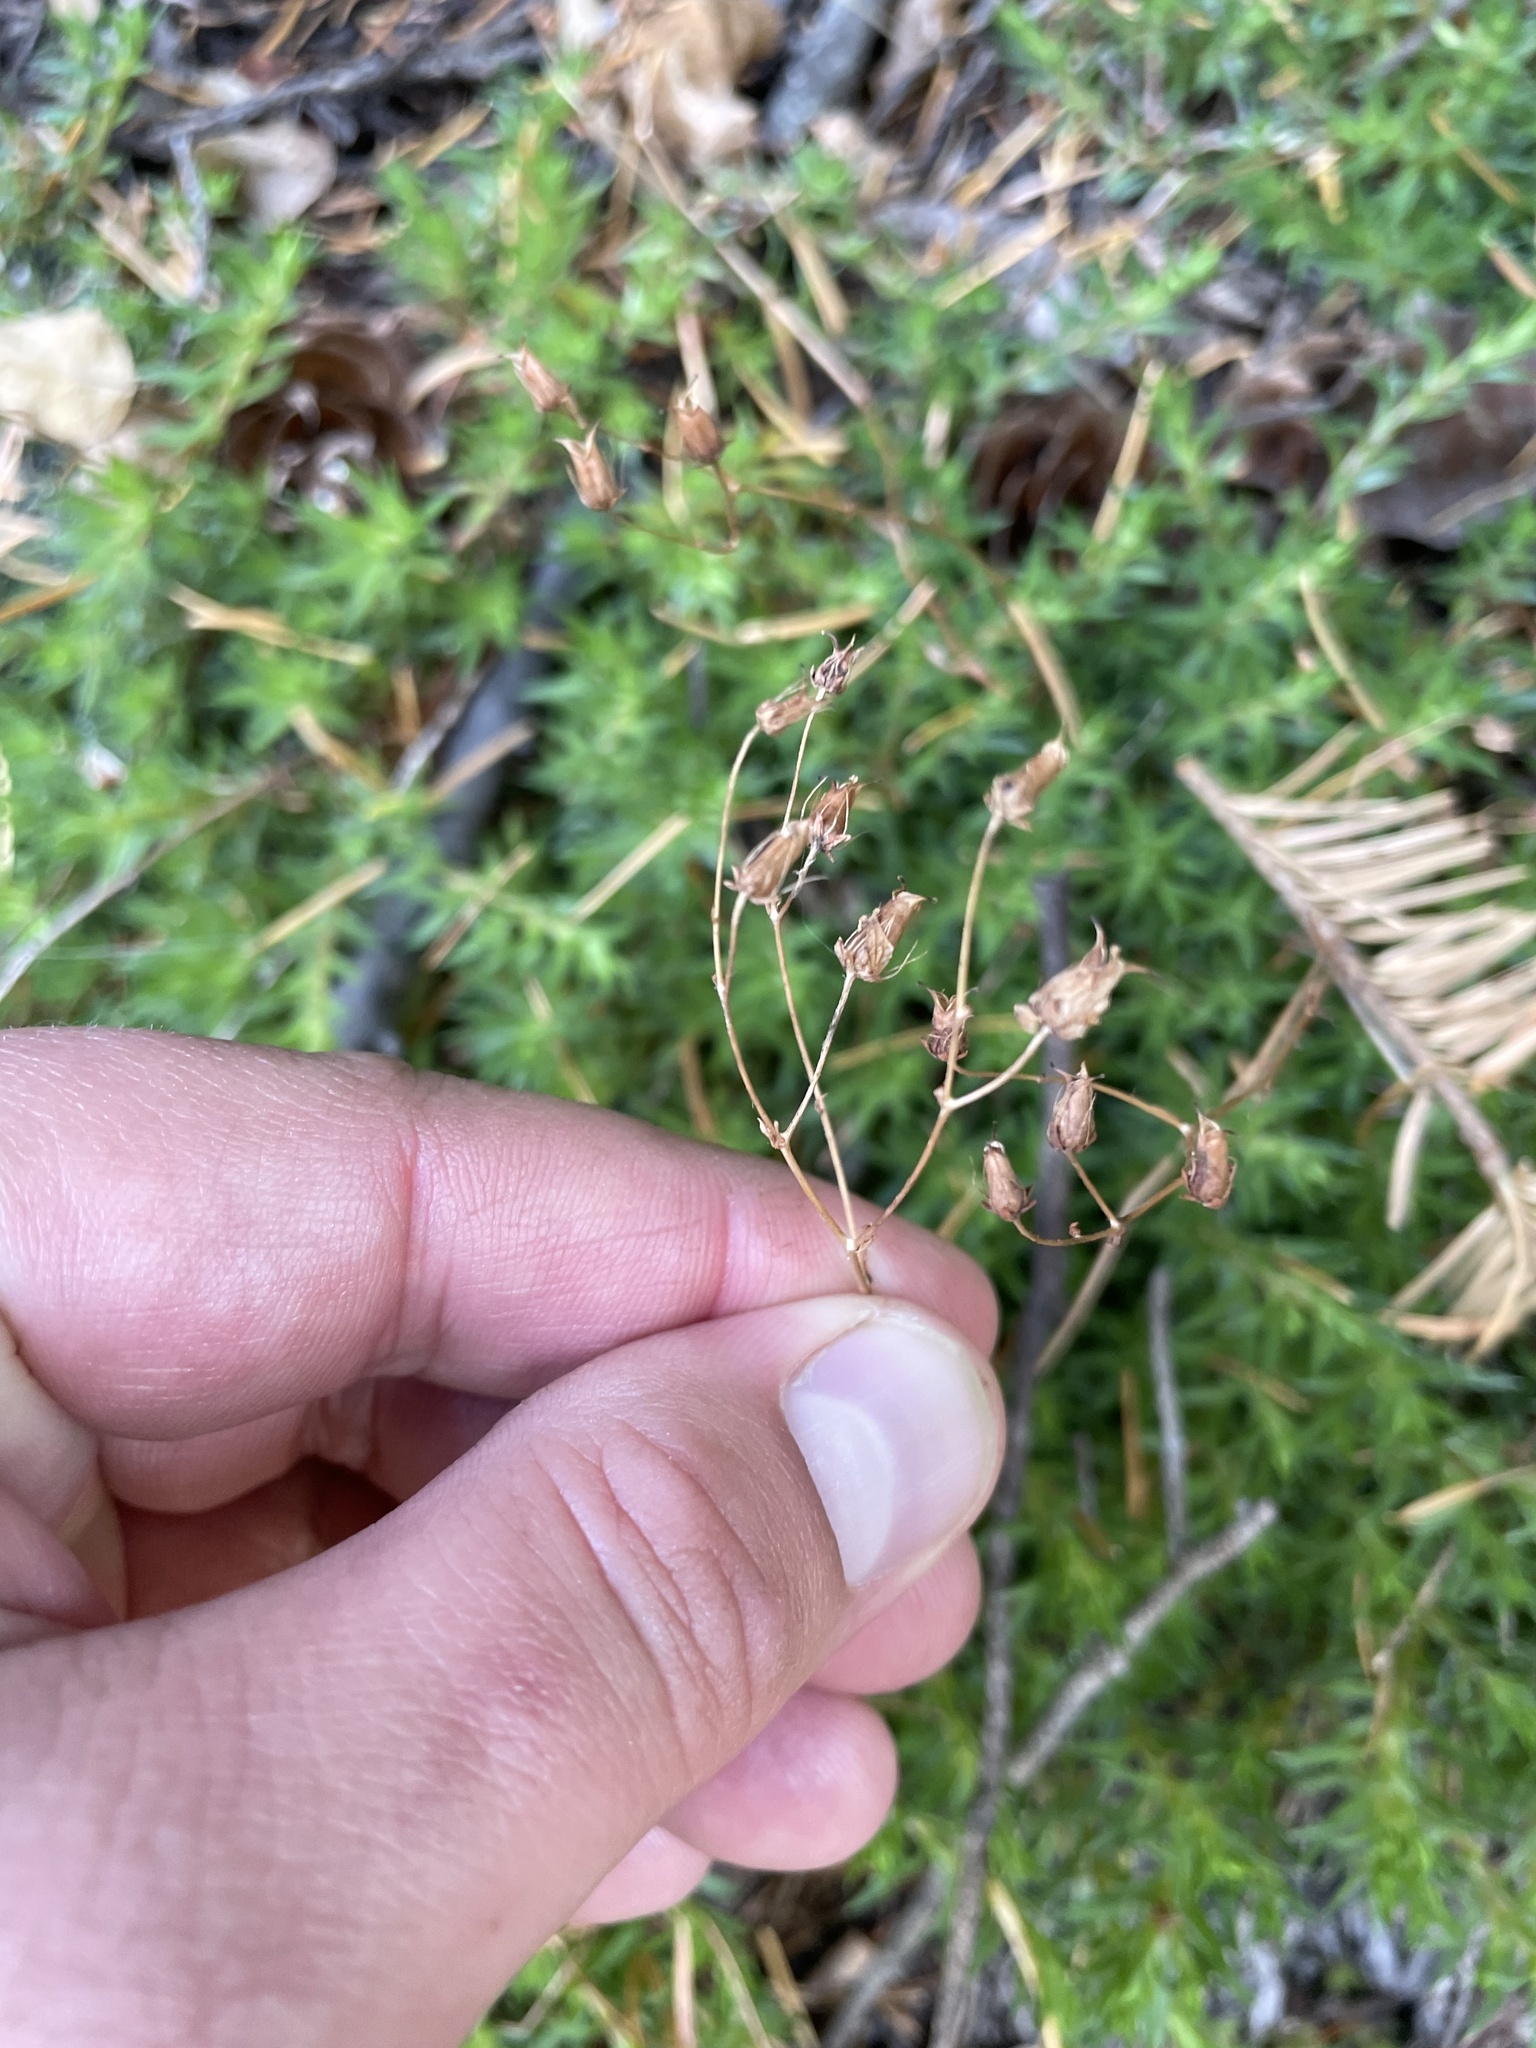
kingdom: Plantae
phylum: Tracheophyta
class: Magnoliopsida
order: Saxifragales
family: Saxifragaceae
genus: Saxifraga
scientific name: Saxifraga bronchialis
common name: Matted saxifrage
